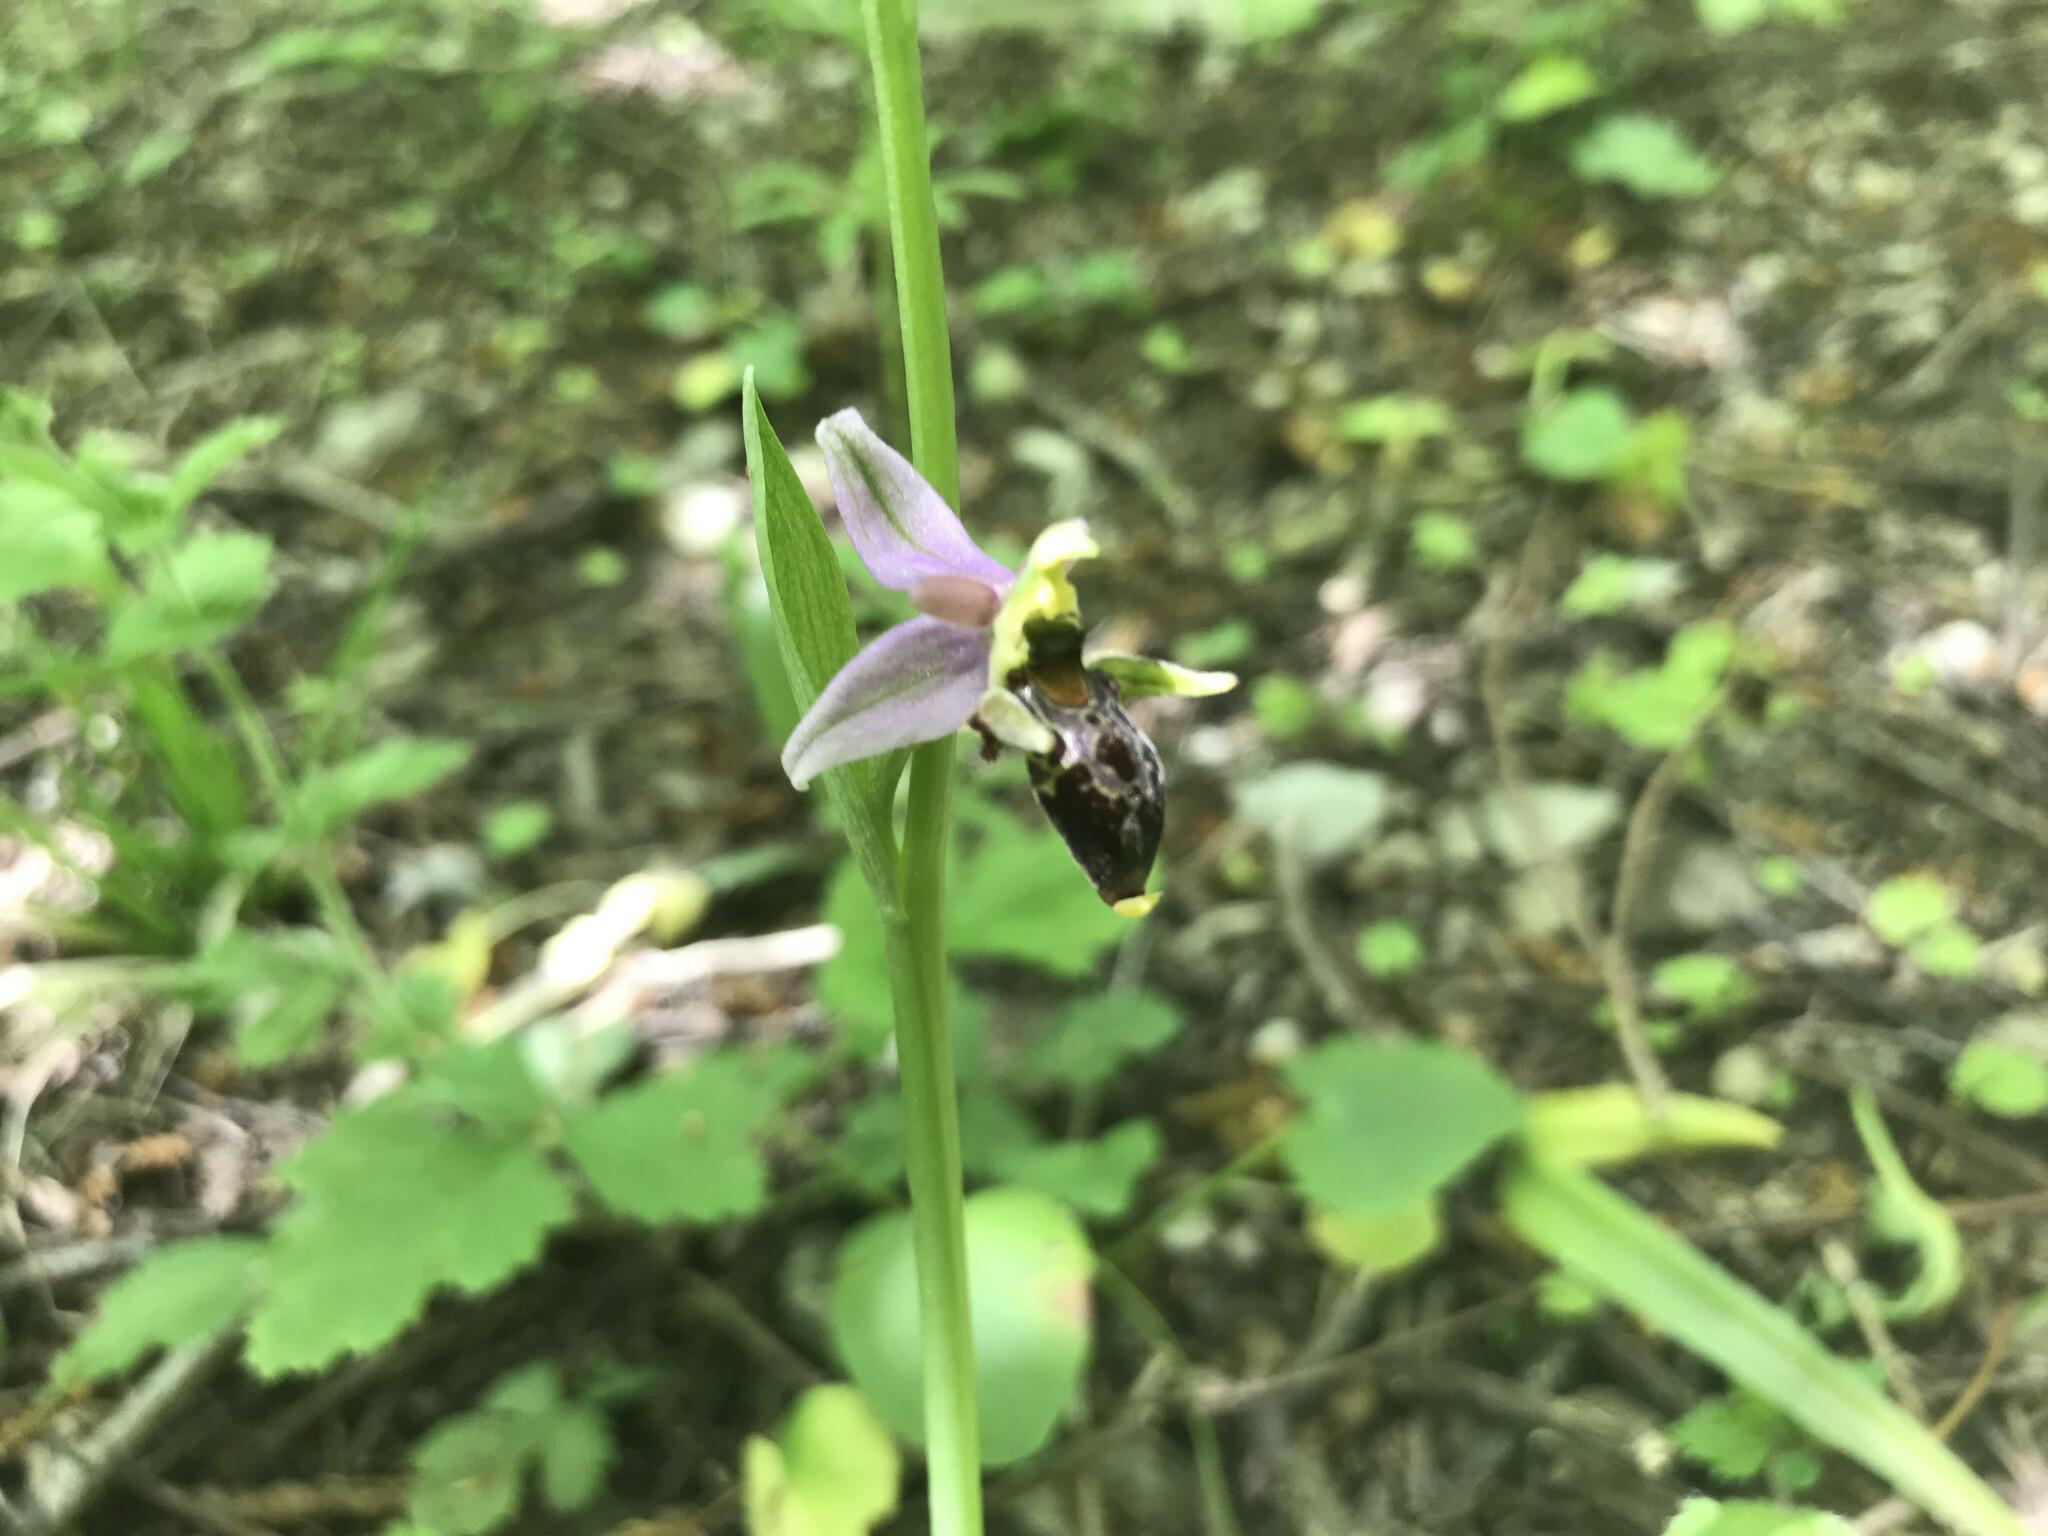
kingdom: Plantae
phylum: Tracheophyta
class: Liliopsida
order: Asparagales
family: Orchidaceae
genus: Ophrys
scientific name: Ophrys
